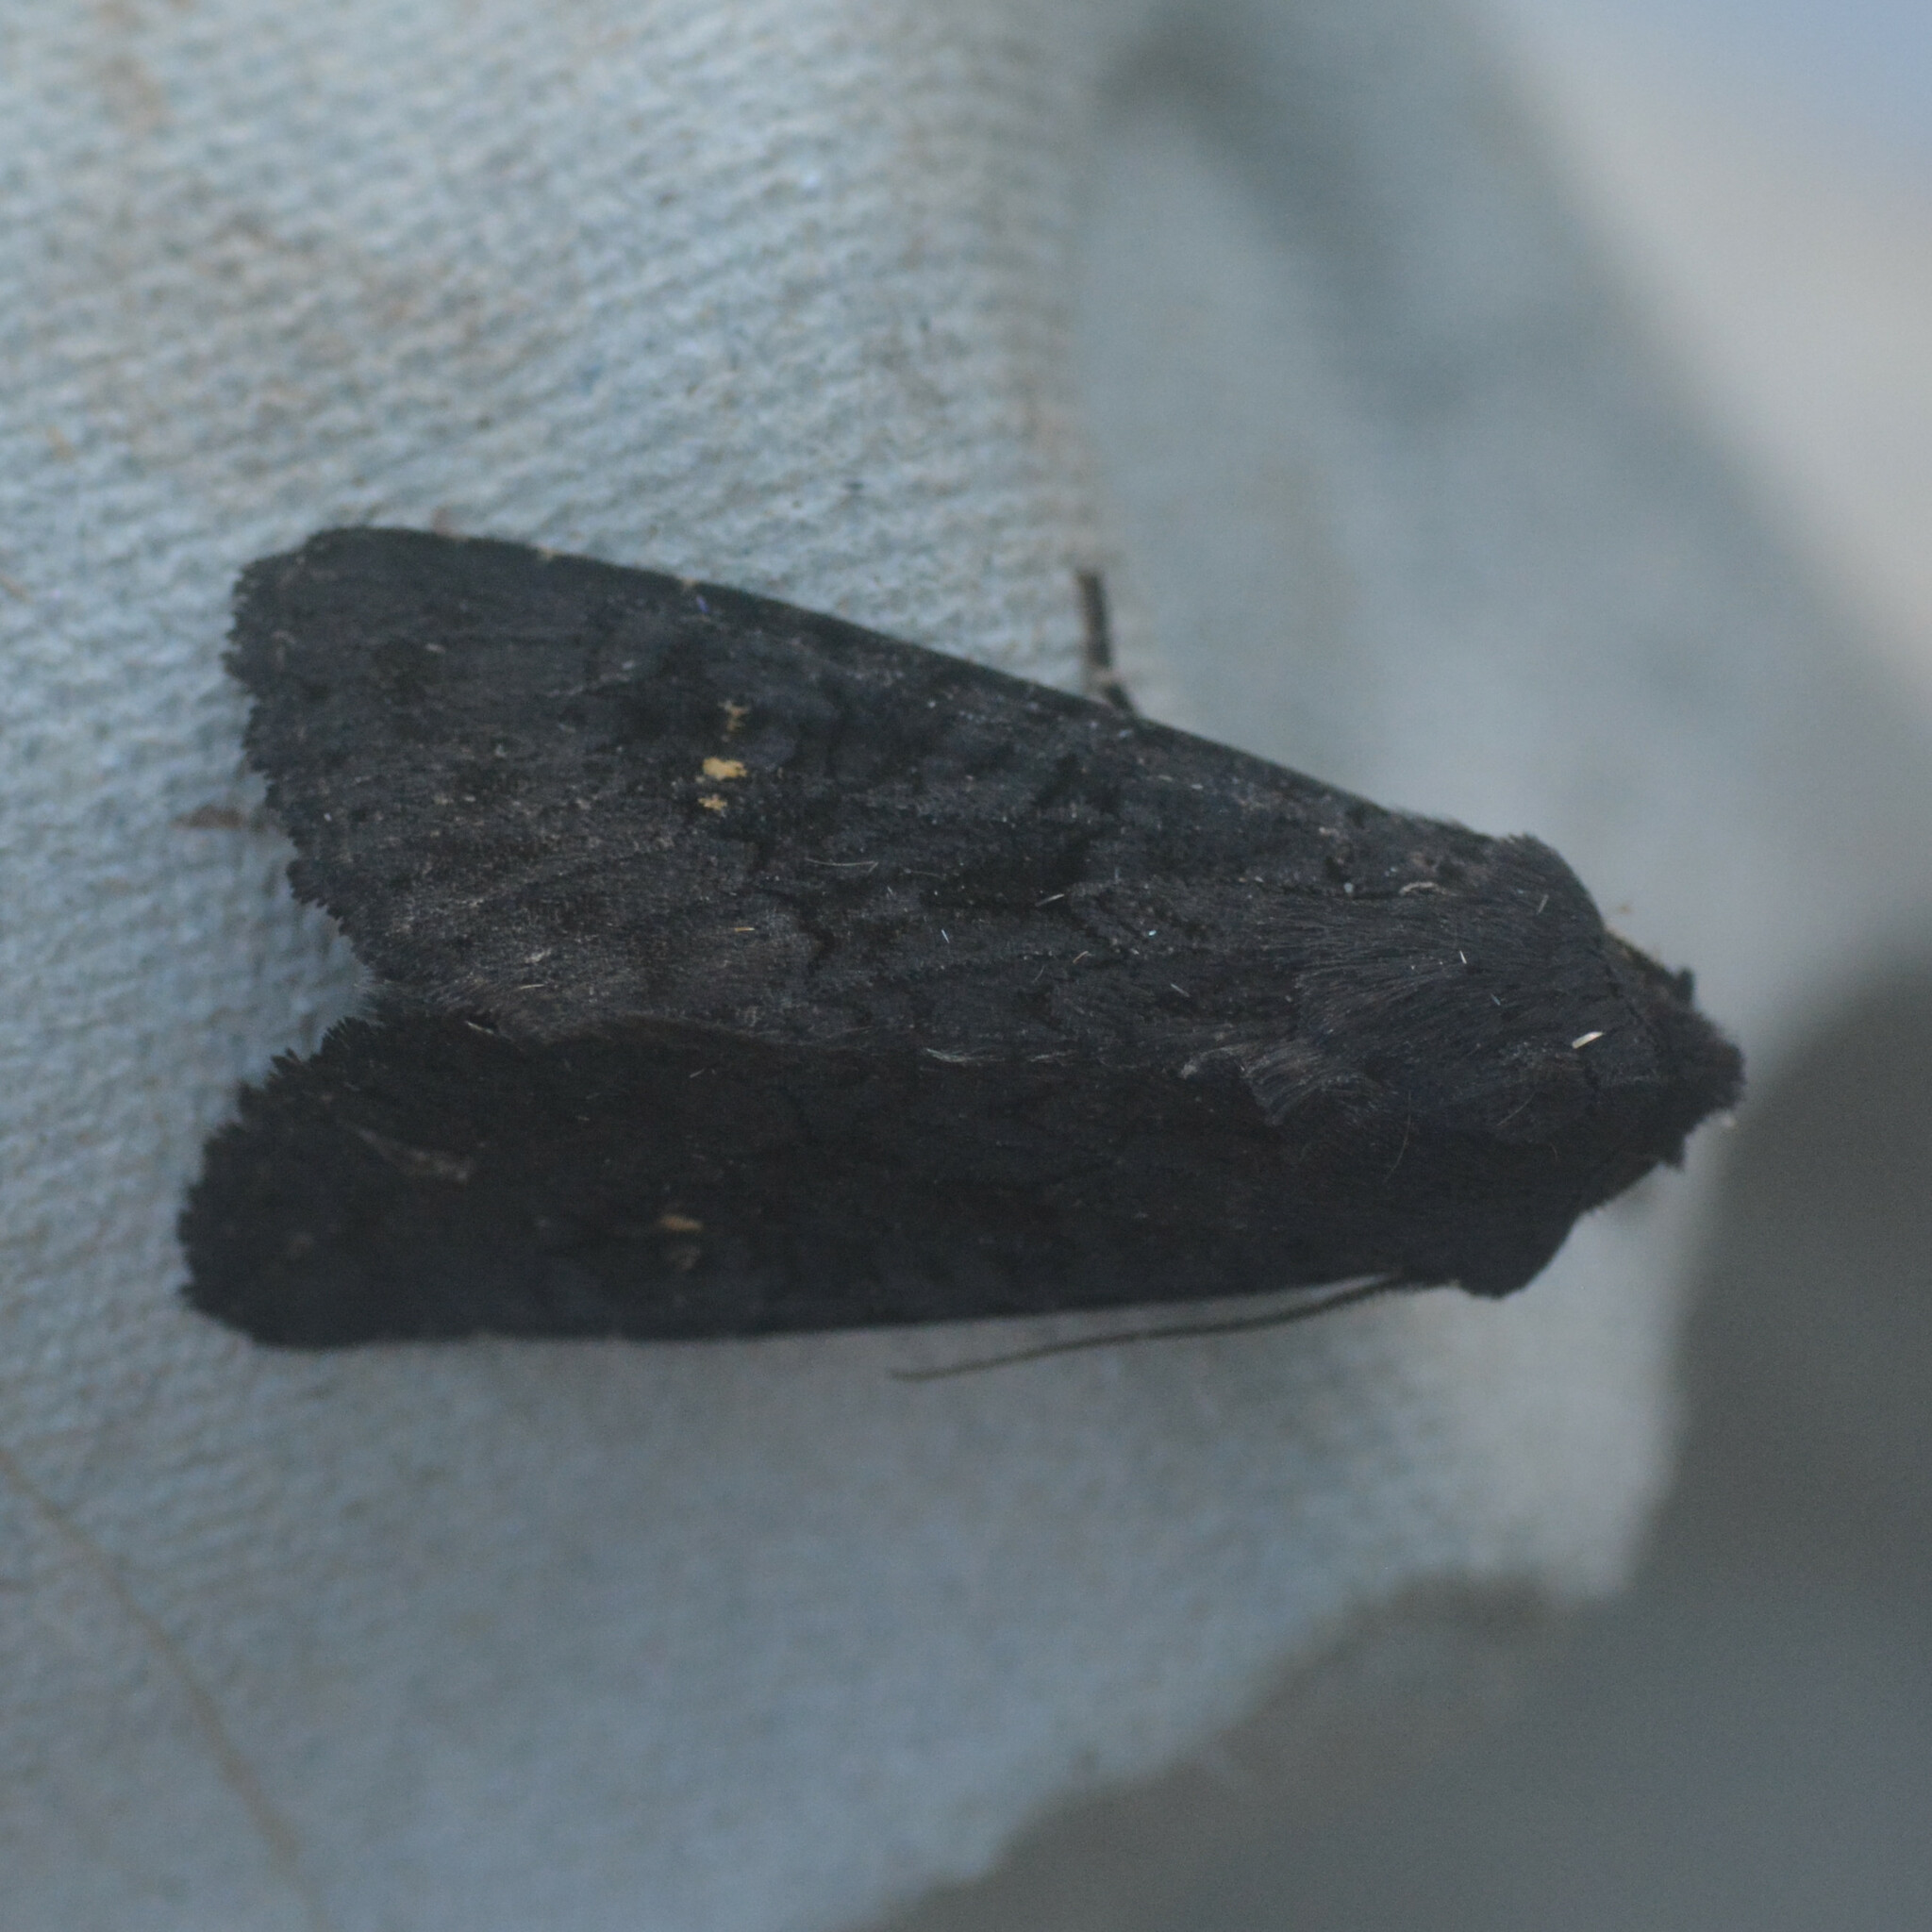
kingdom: Animalia
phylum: Arthropoda
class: Insecta
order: Lepidoptera
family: Noctuidae
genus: Aporophyla
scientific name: Aporophyla nigra
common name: Black rustic
